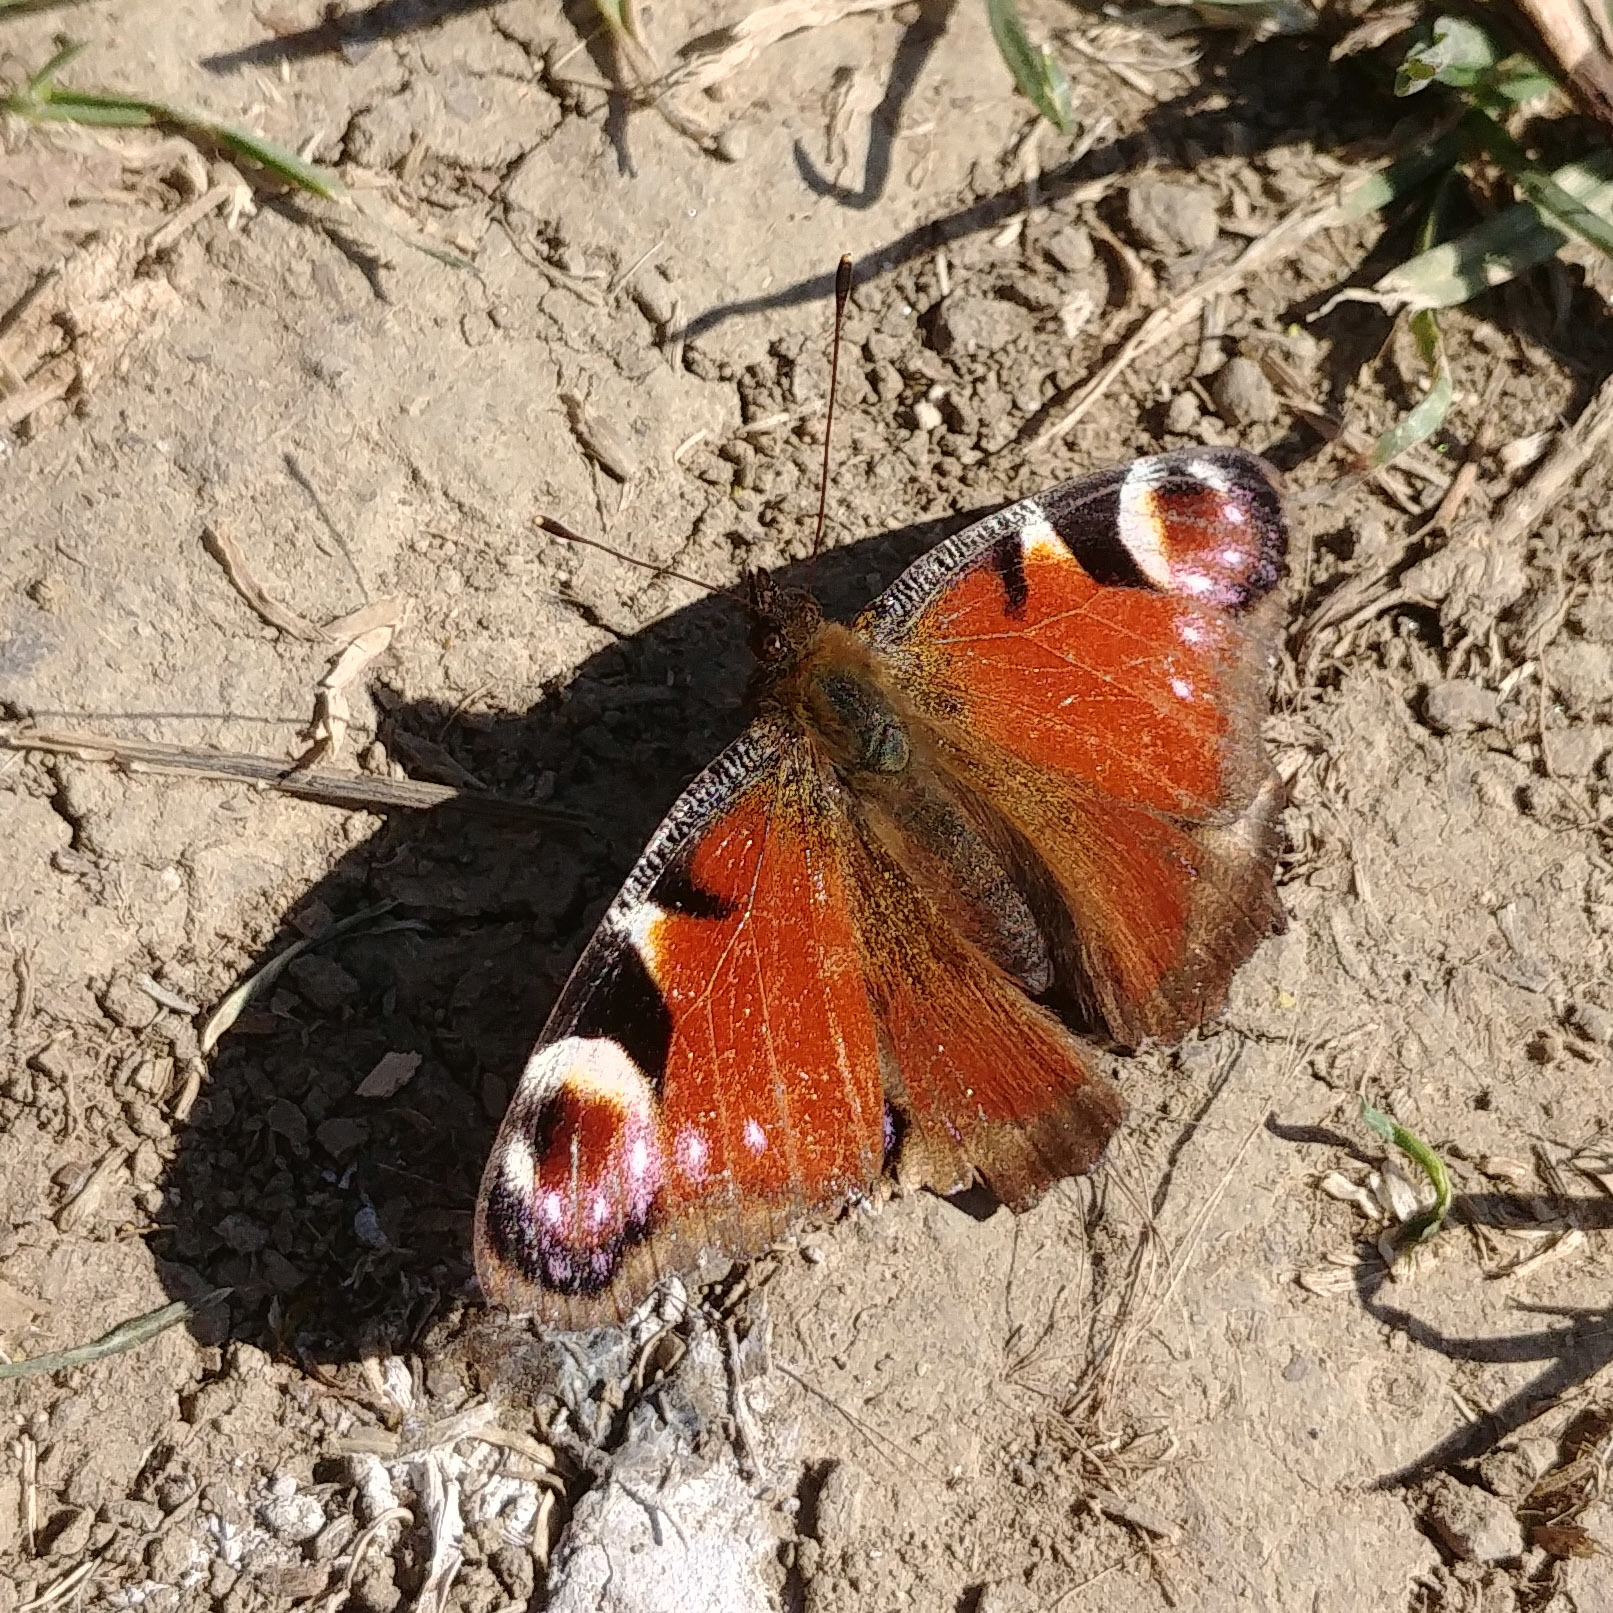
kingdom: Animalia
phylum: Arthropoda
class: Insecta
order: Lepidoptera
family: Nymphalidae
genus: Aglais
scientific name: Aglais io
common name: Peacock
